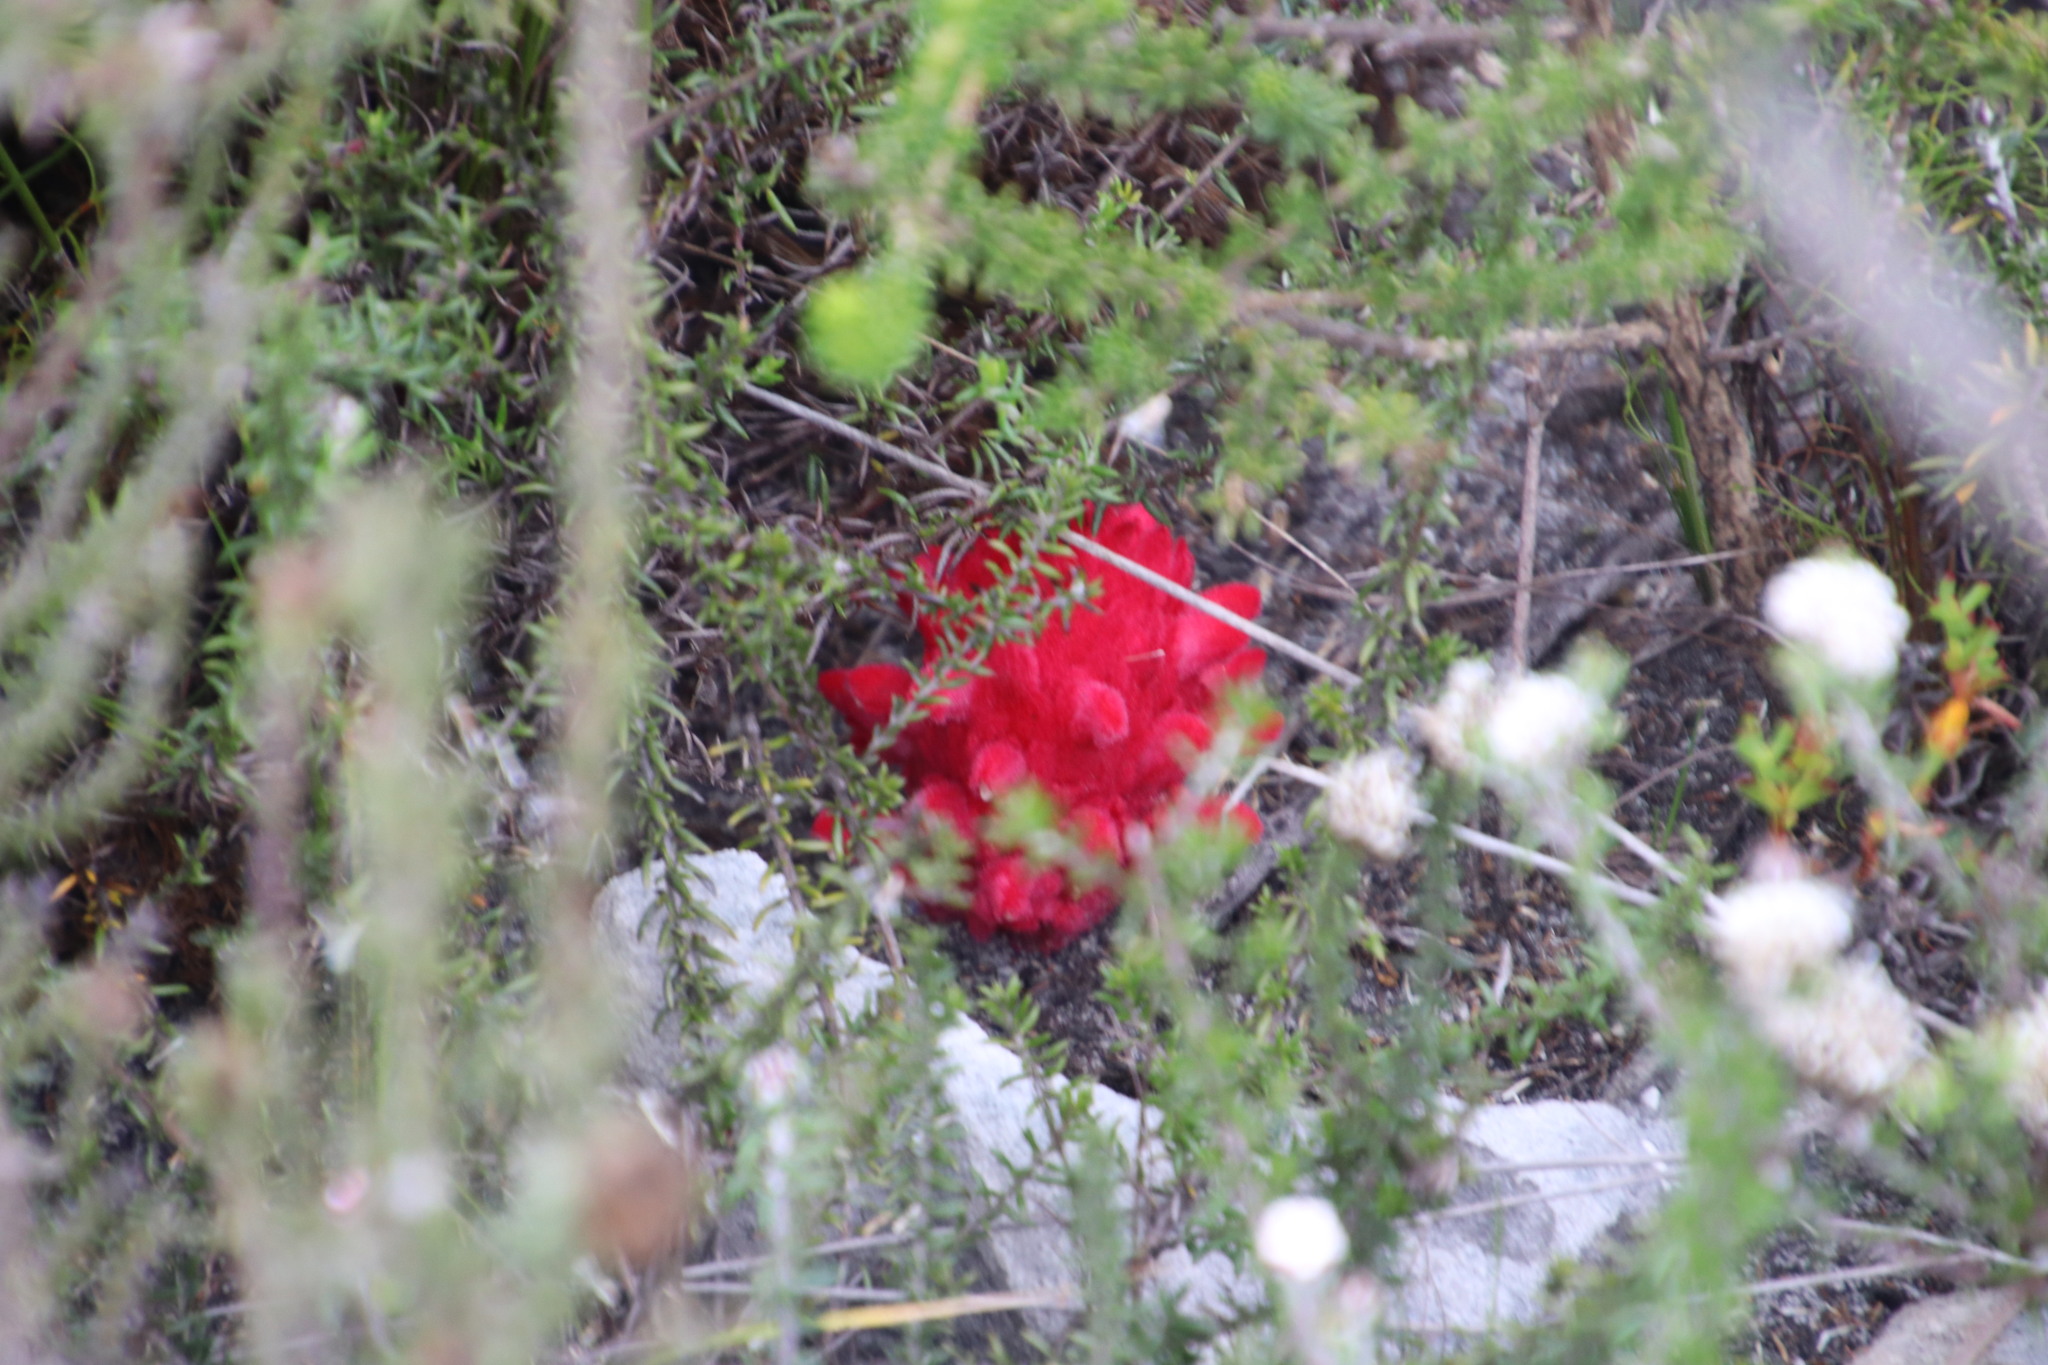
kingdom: Plantae
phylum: Tracheophyta
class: Magnoliopsida
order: Lamiales
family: Orobanchaceae
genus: Hyobanche
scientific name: Hyobanche sanguinea
